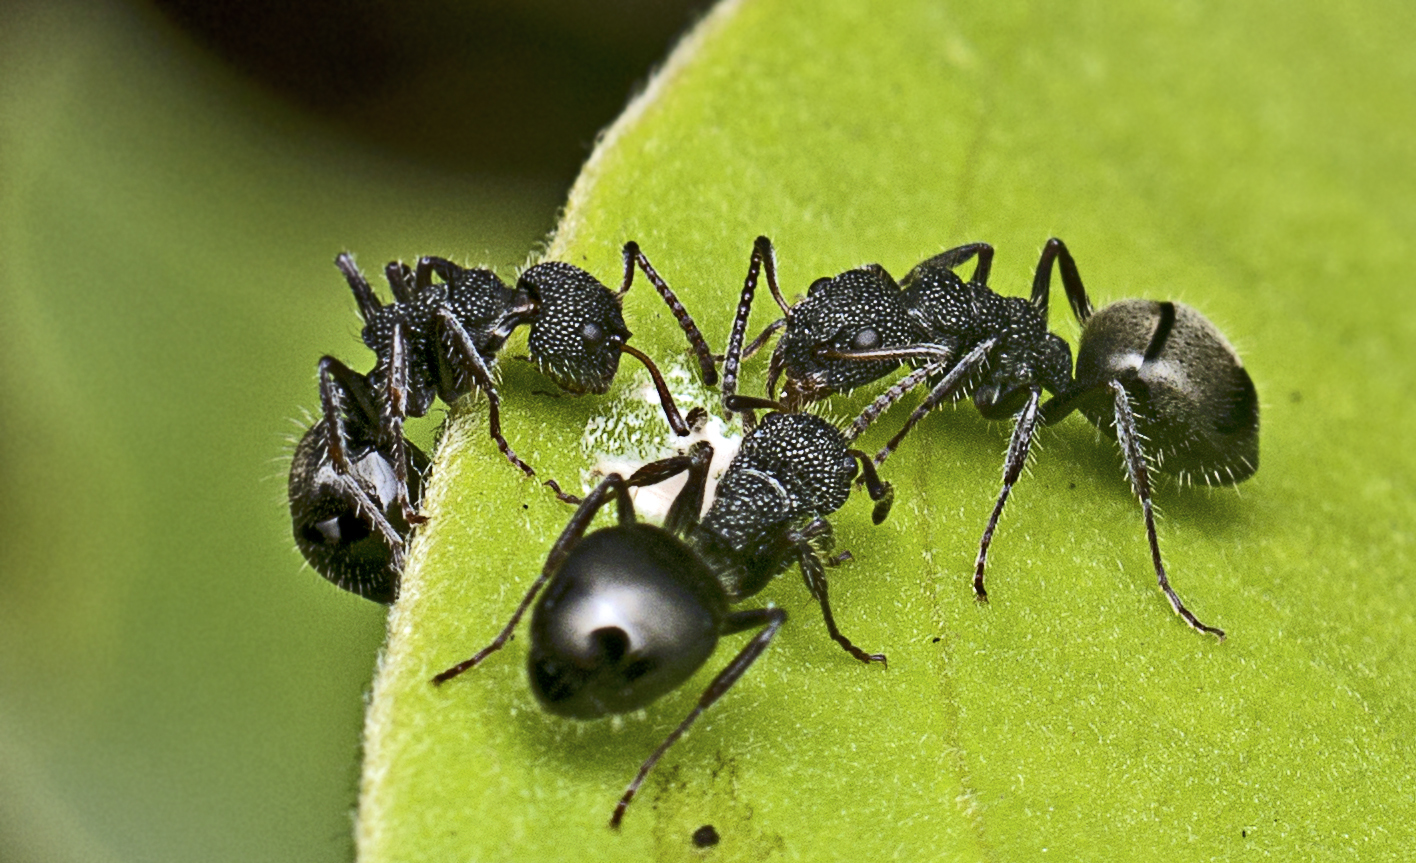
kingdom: Animalia
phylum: Arthropoda
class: Insecta
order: Hymenoptera
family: Formicidae
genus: Dolichoderus
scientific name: Dolichoderus scrobiculatus
